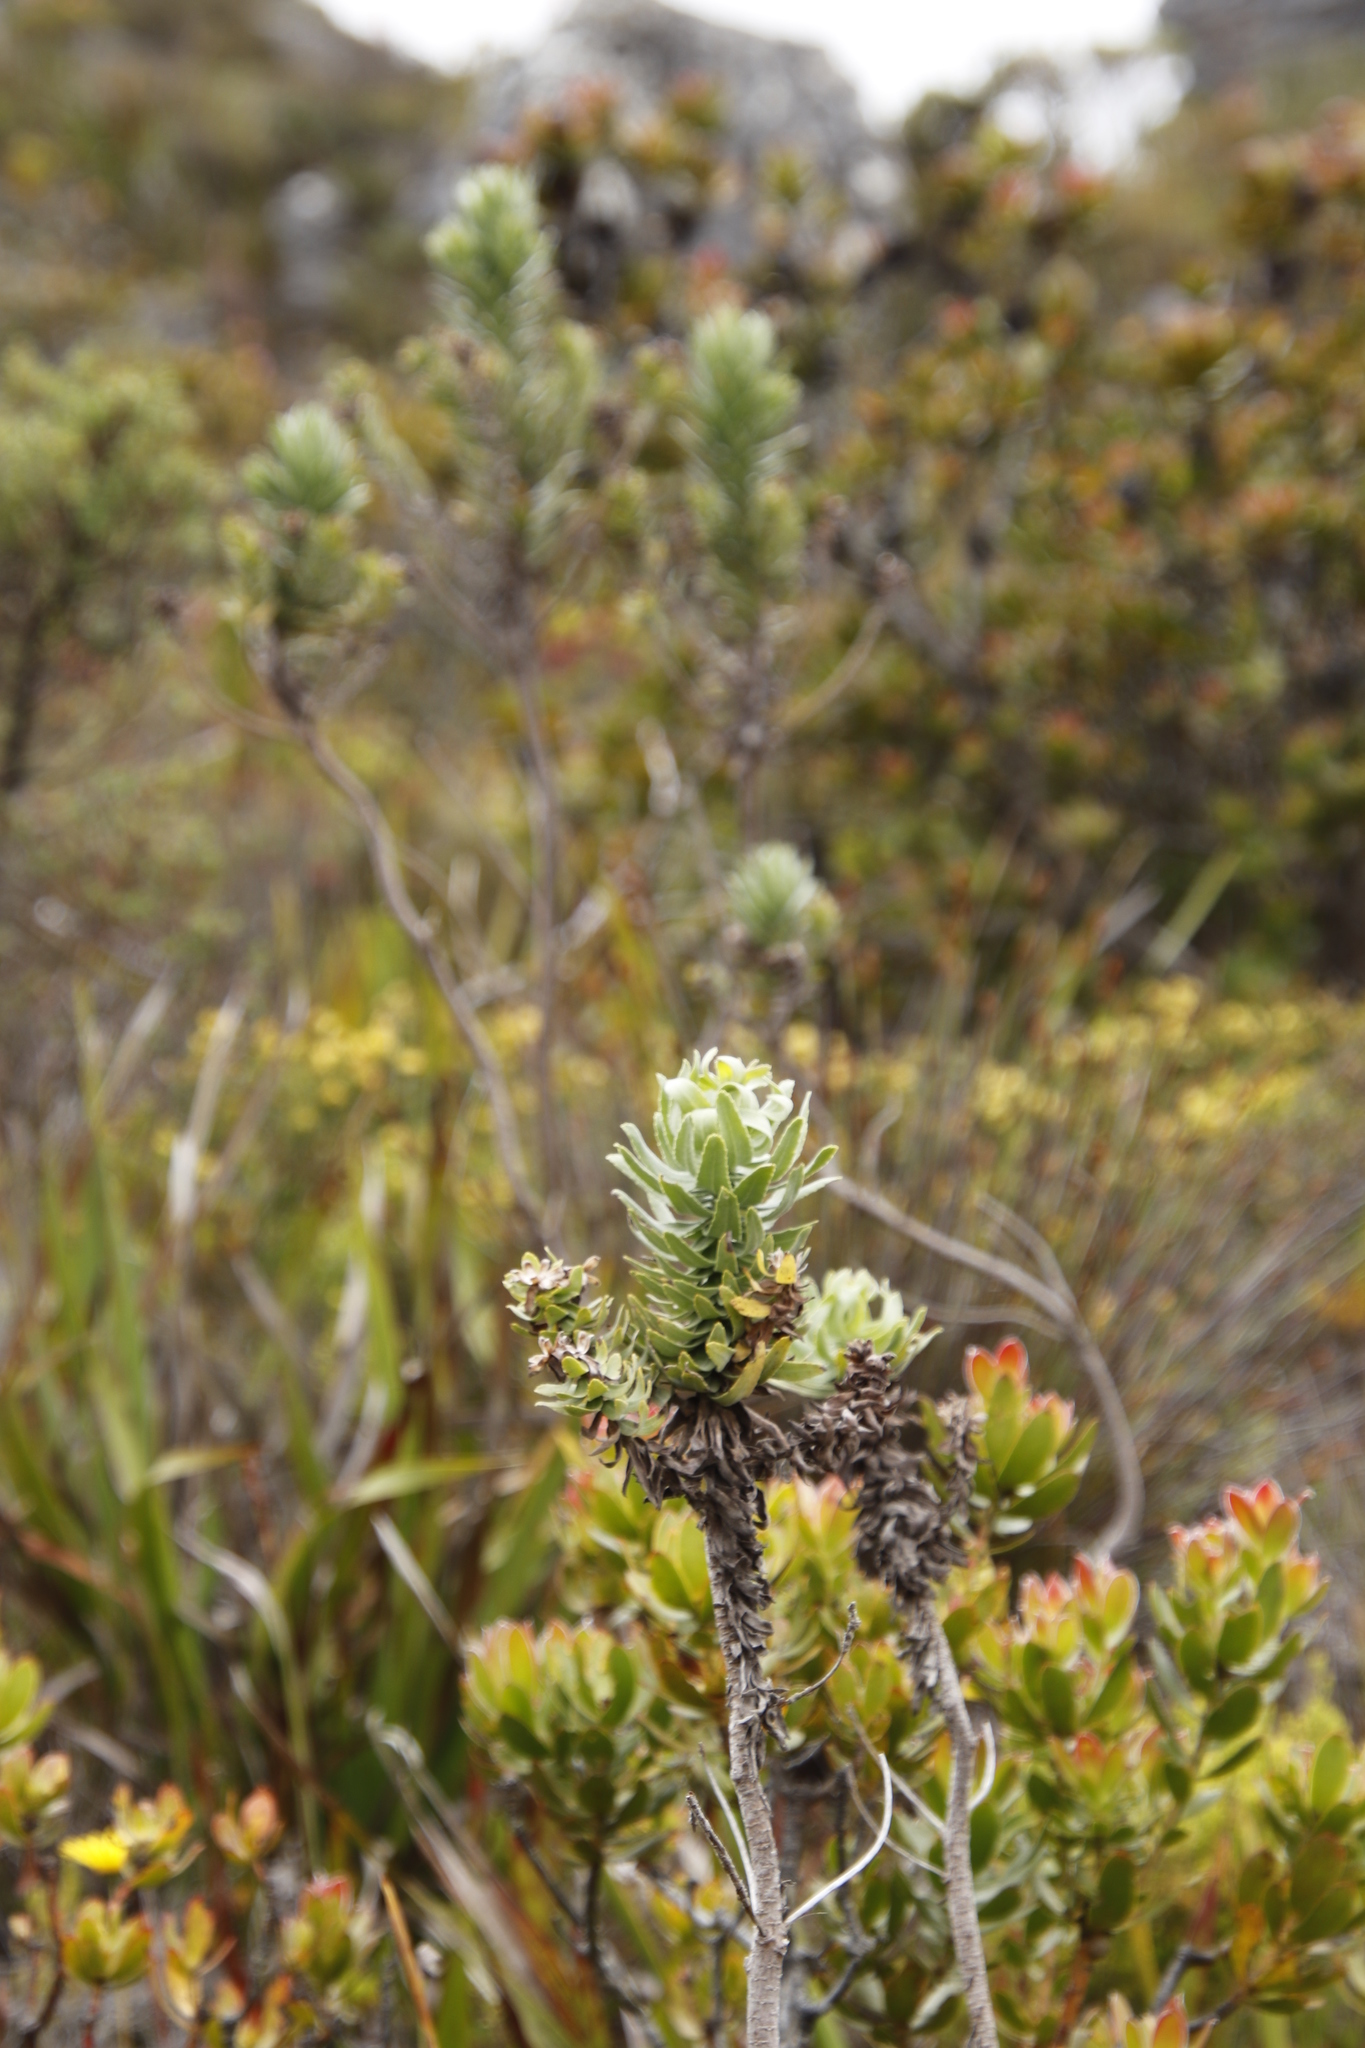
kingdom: Plantae
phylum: Tracheophyta
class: Magnoliopsida
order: Asterales
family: Asteraceae
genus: Osmitopsis
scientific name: Osmitopsis asteriscoides
